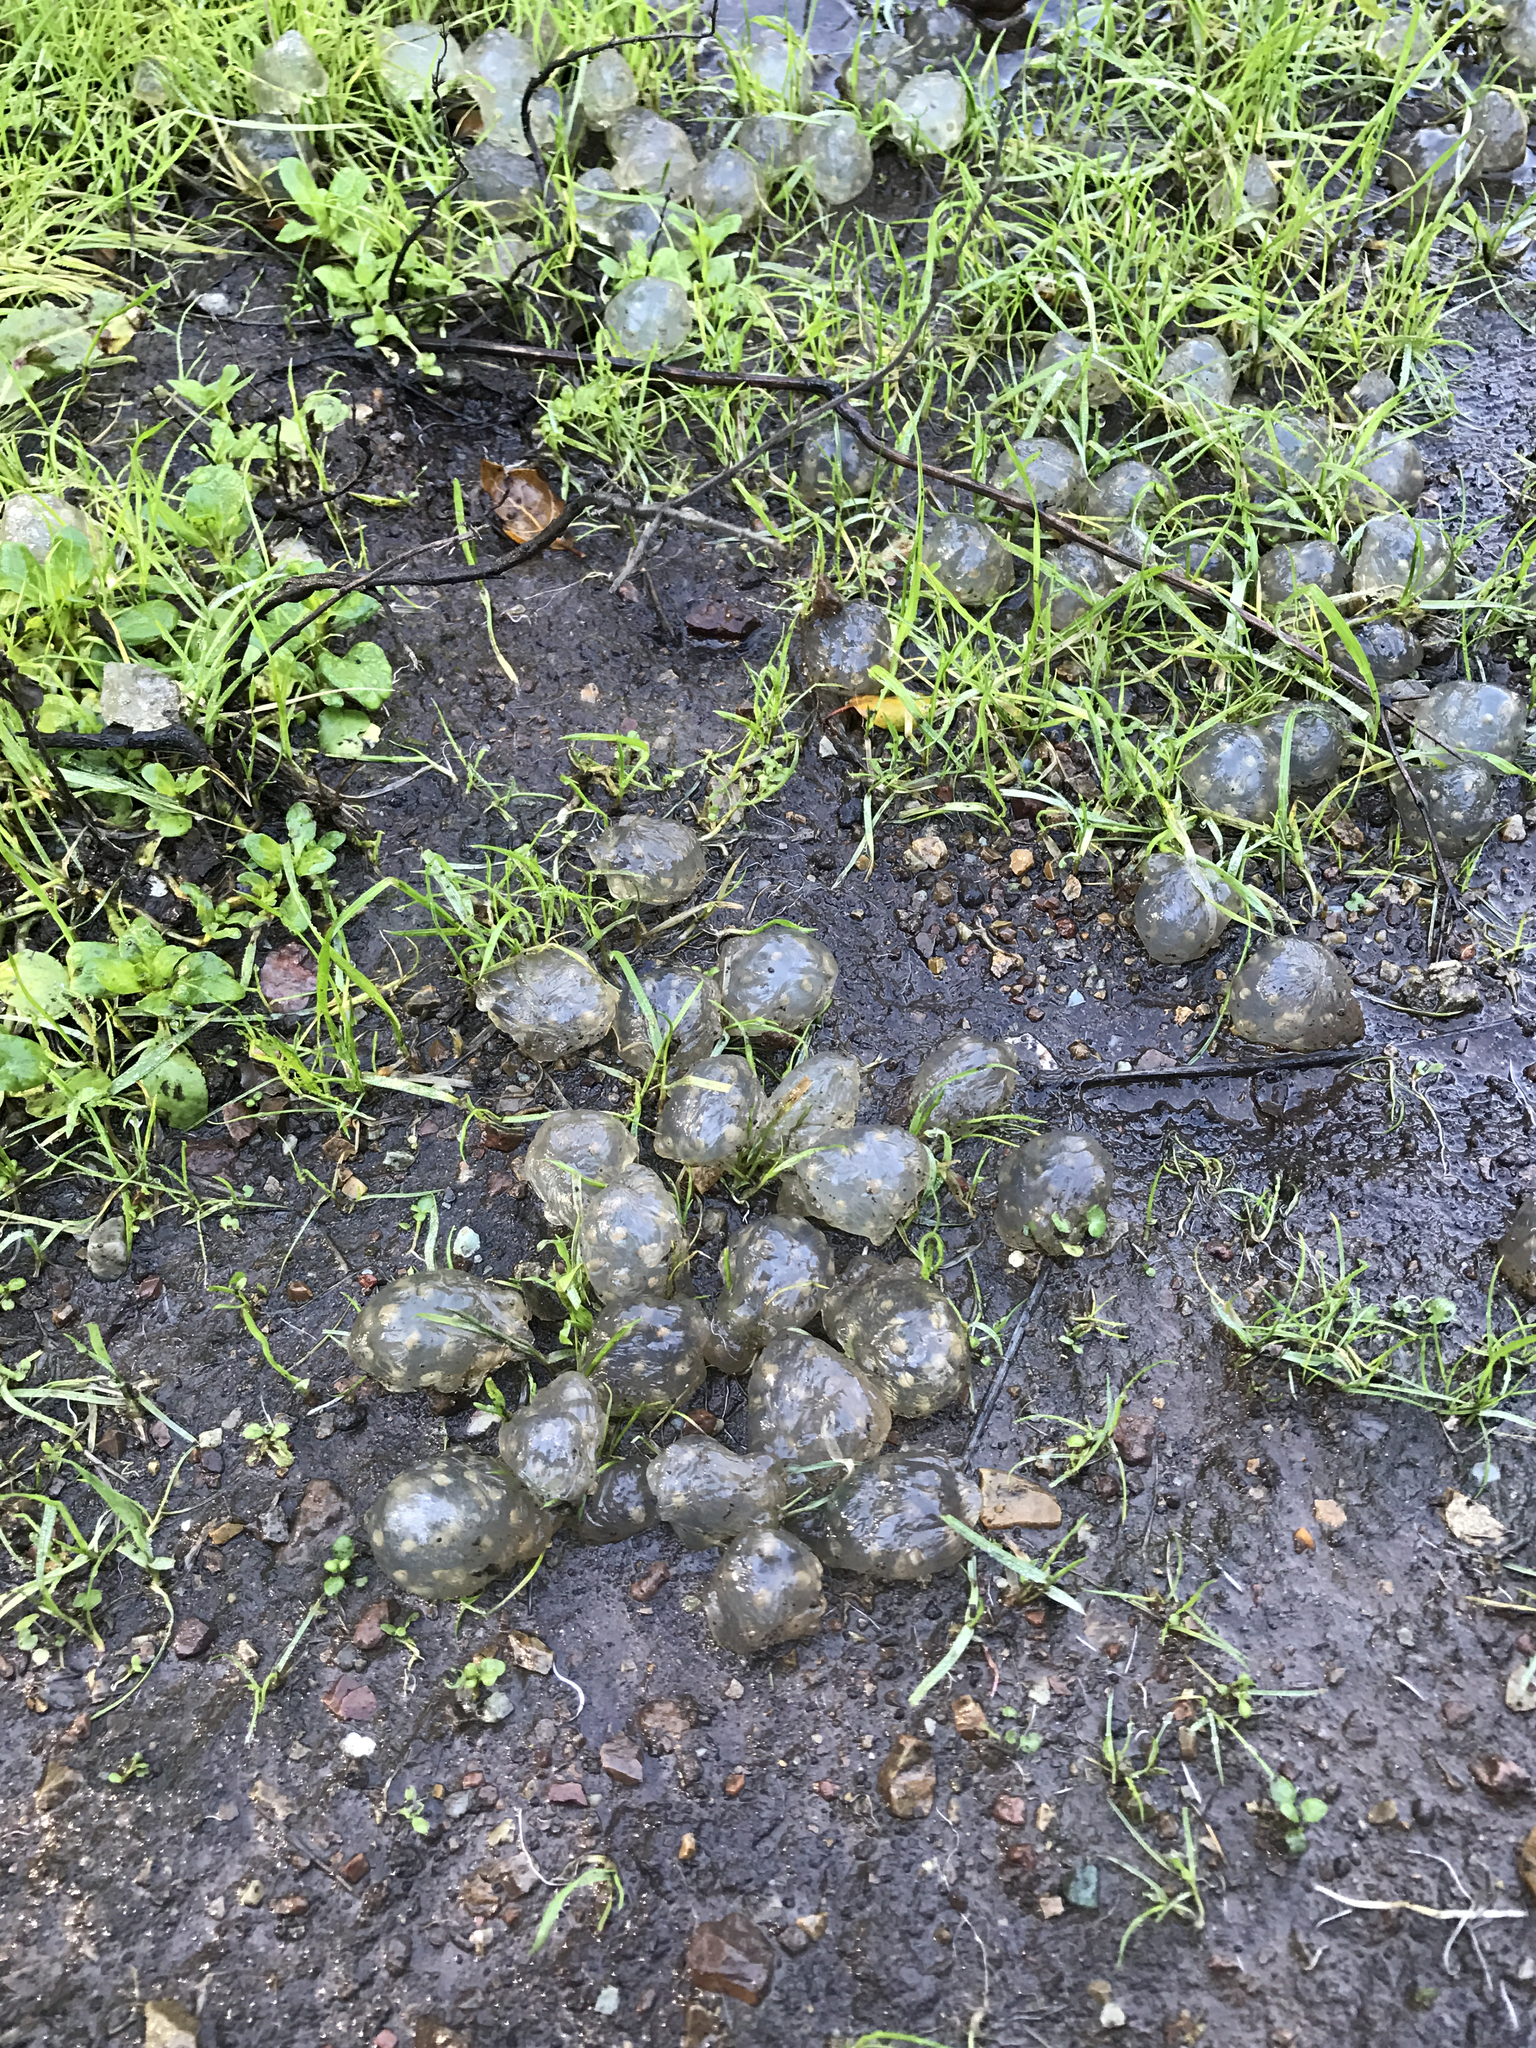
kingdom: Animalia
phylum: Chordata
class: Amphibia
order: Caudata
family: Salamandridae
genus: Taricha
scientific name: Taricha torosa
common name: California newt
